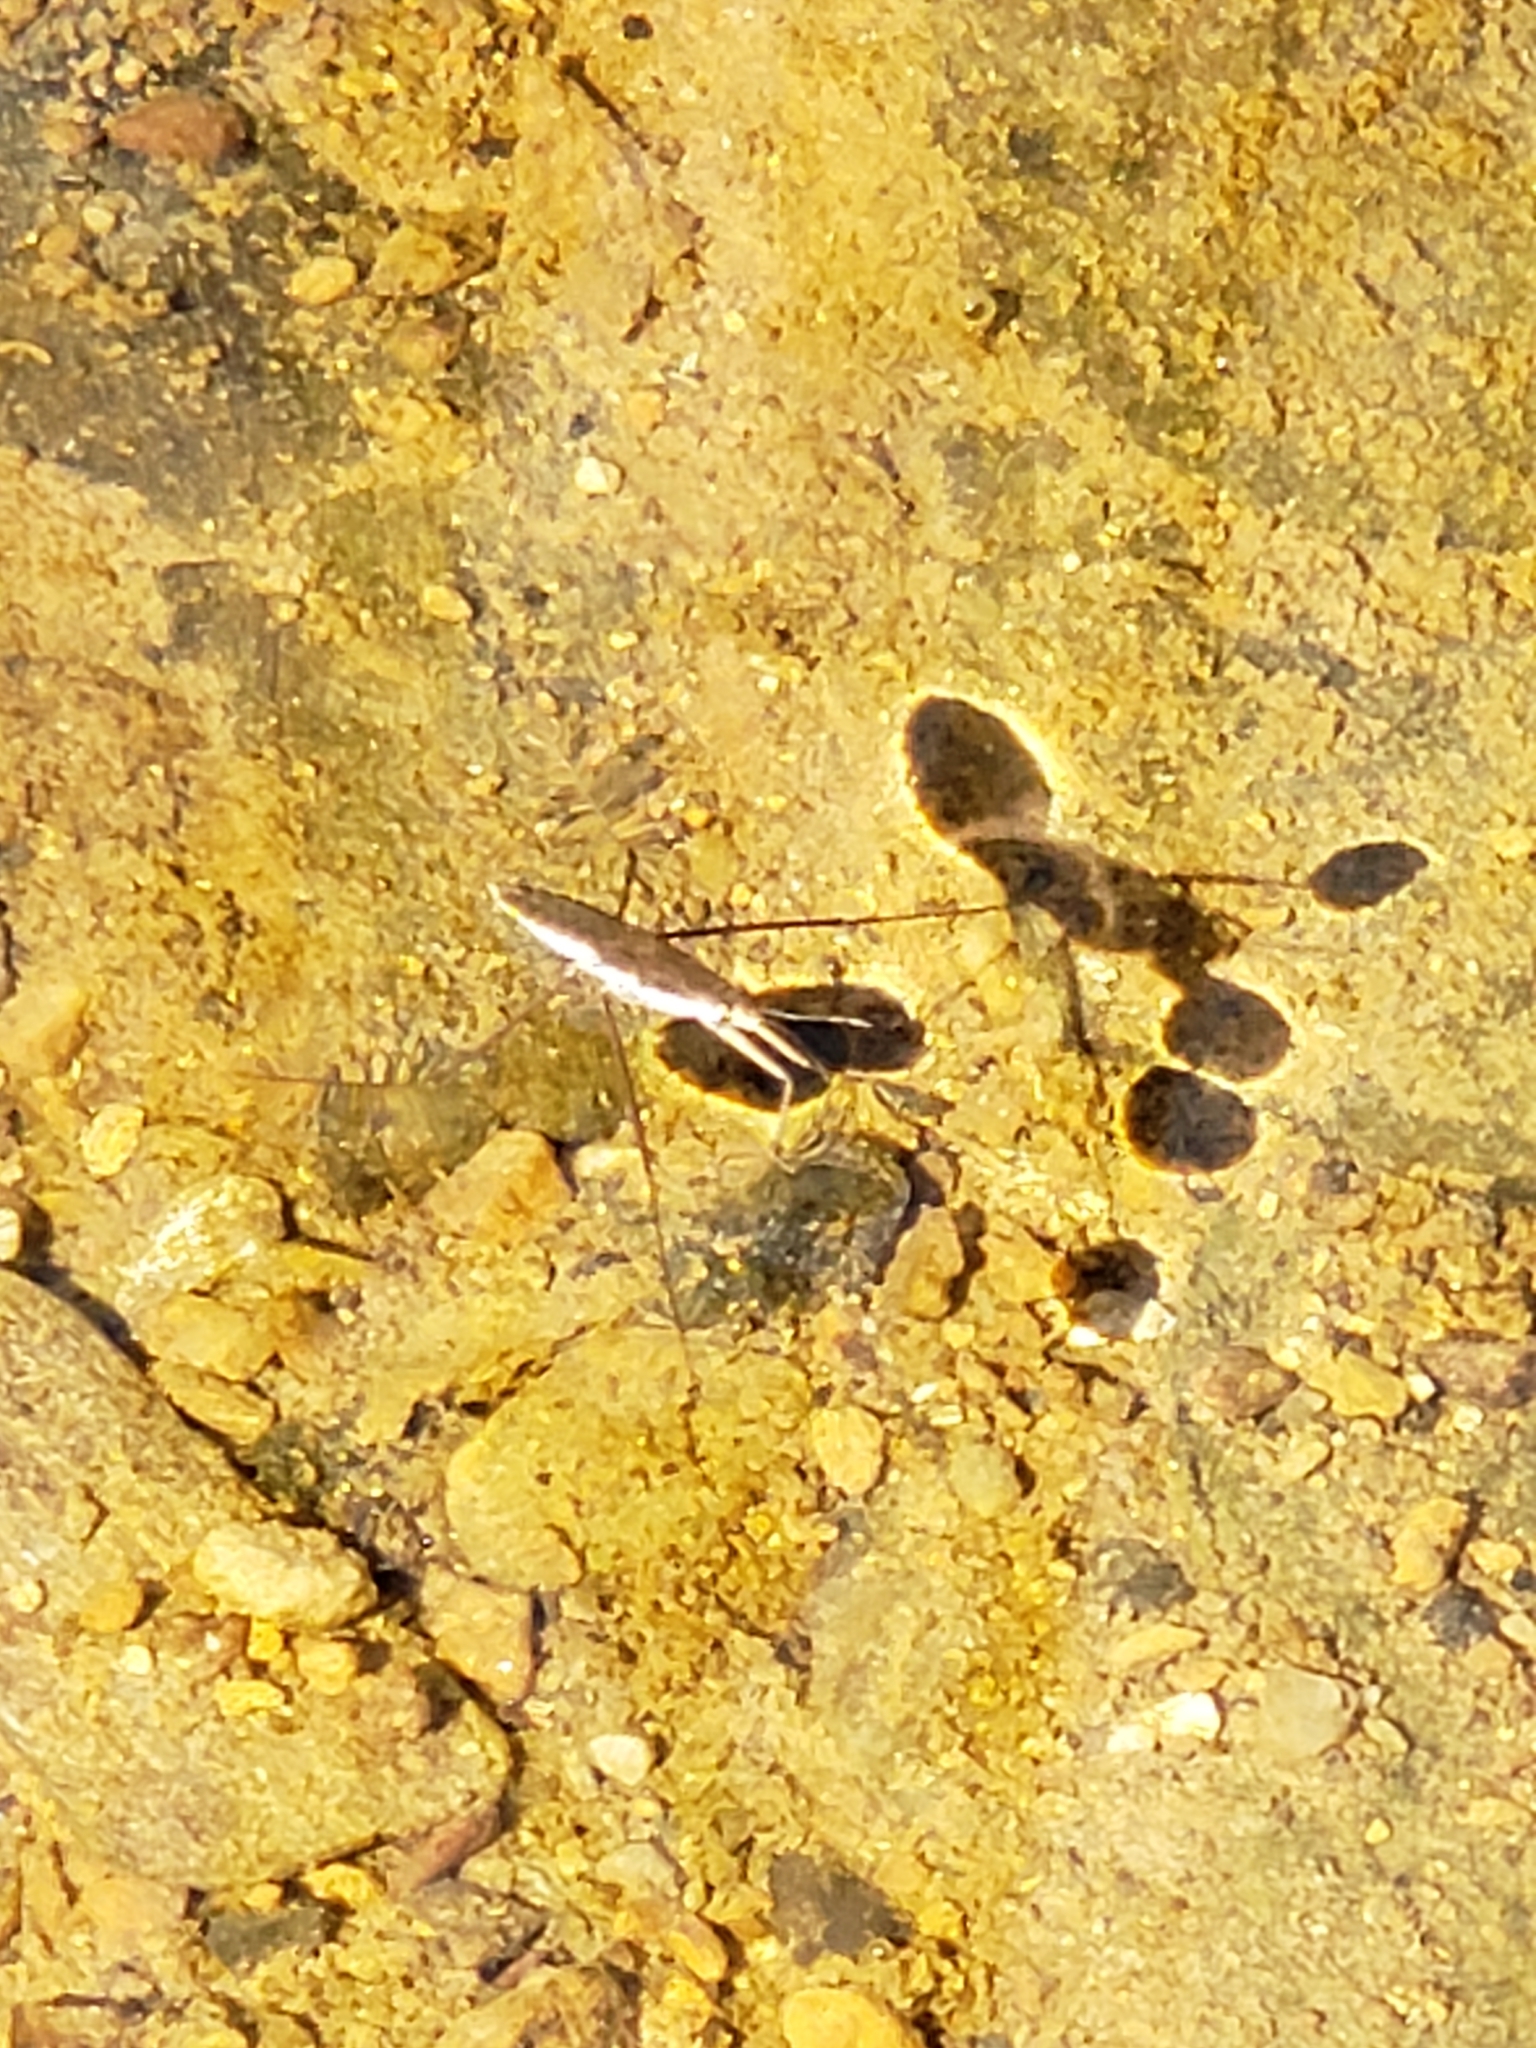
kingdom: Animalia
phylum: Arthropoda
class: Insecta
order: Hemiptera
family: Gerridae
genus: Aquarius
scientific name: Aquarius
